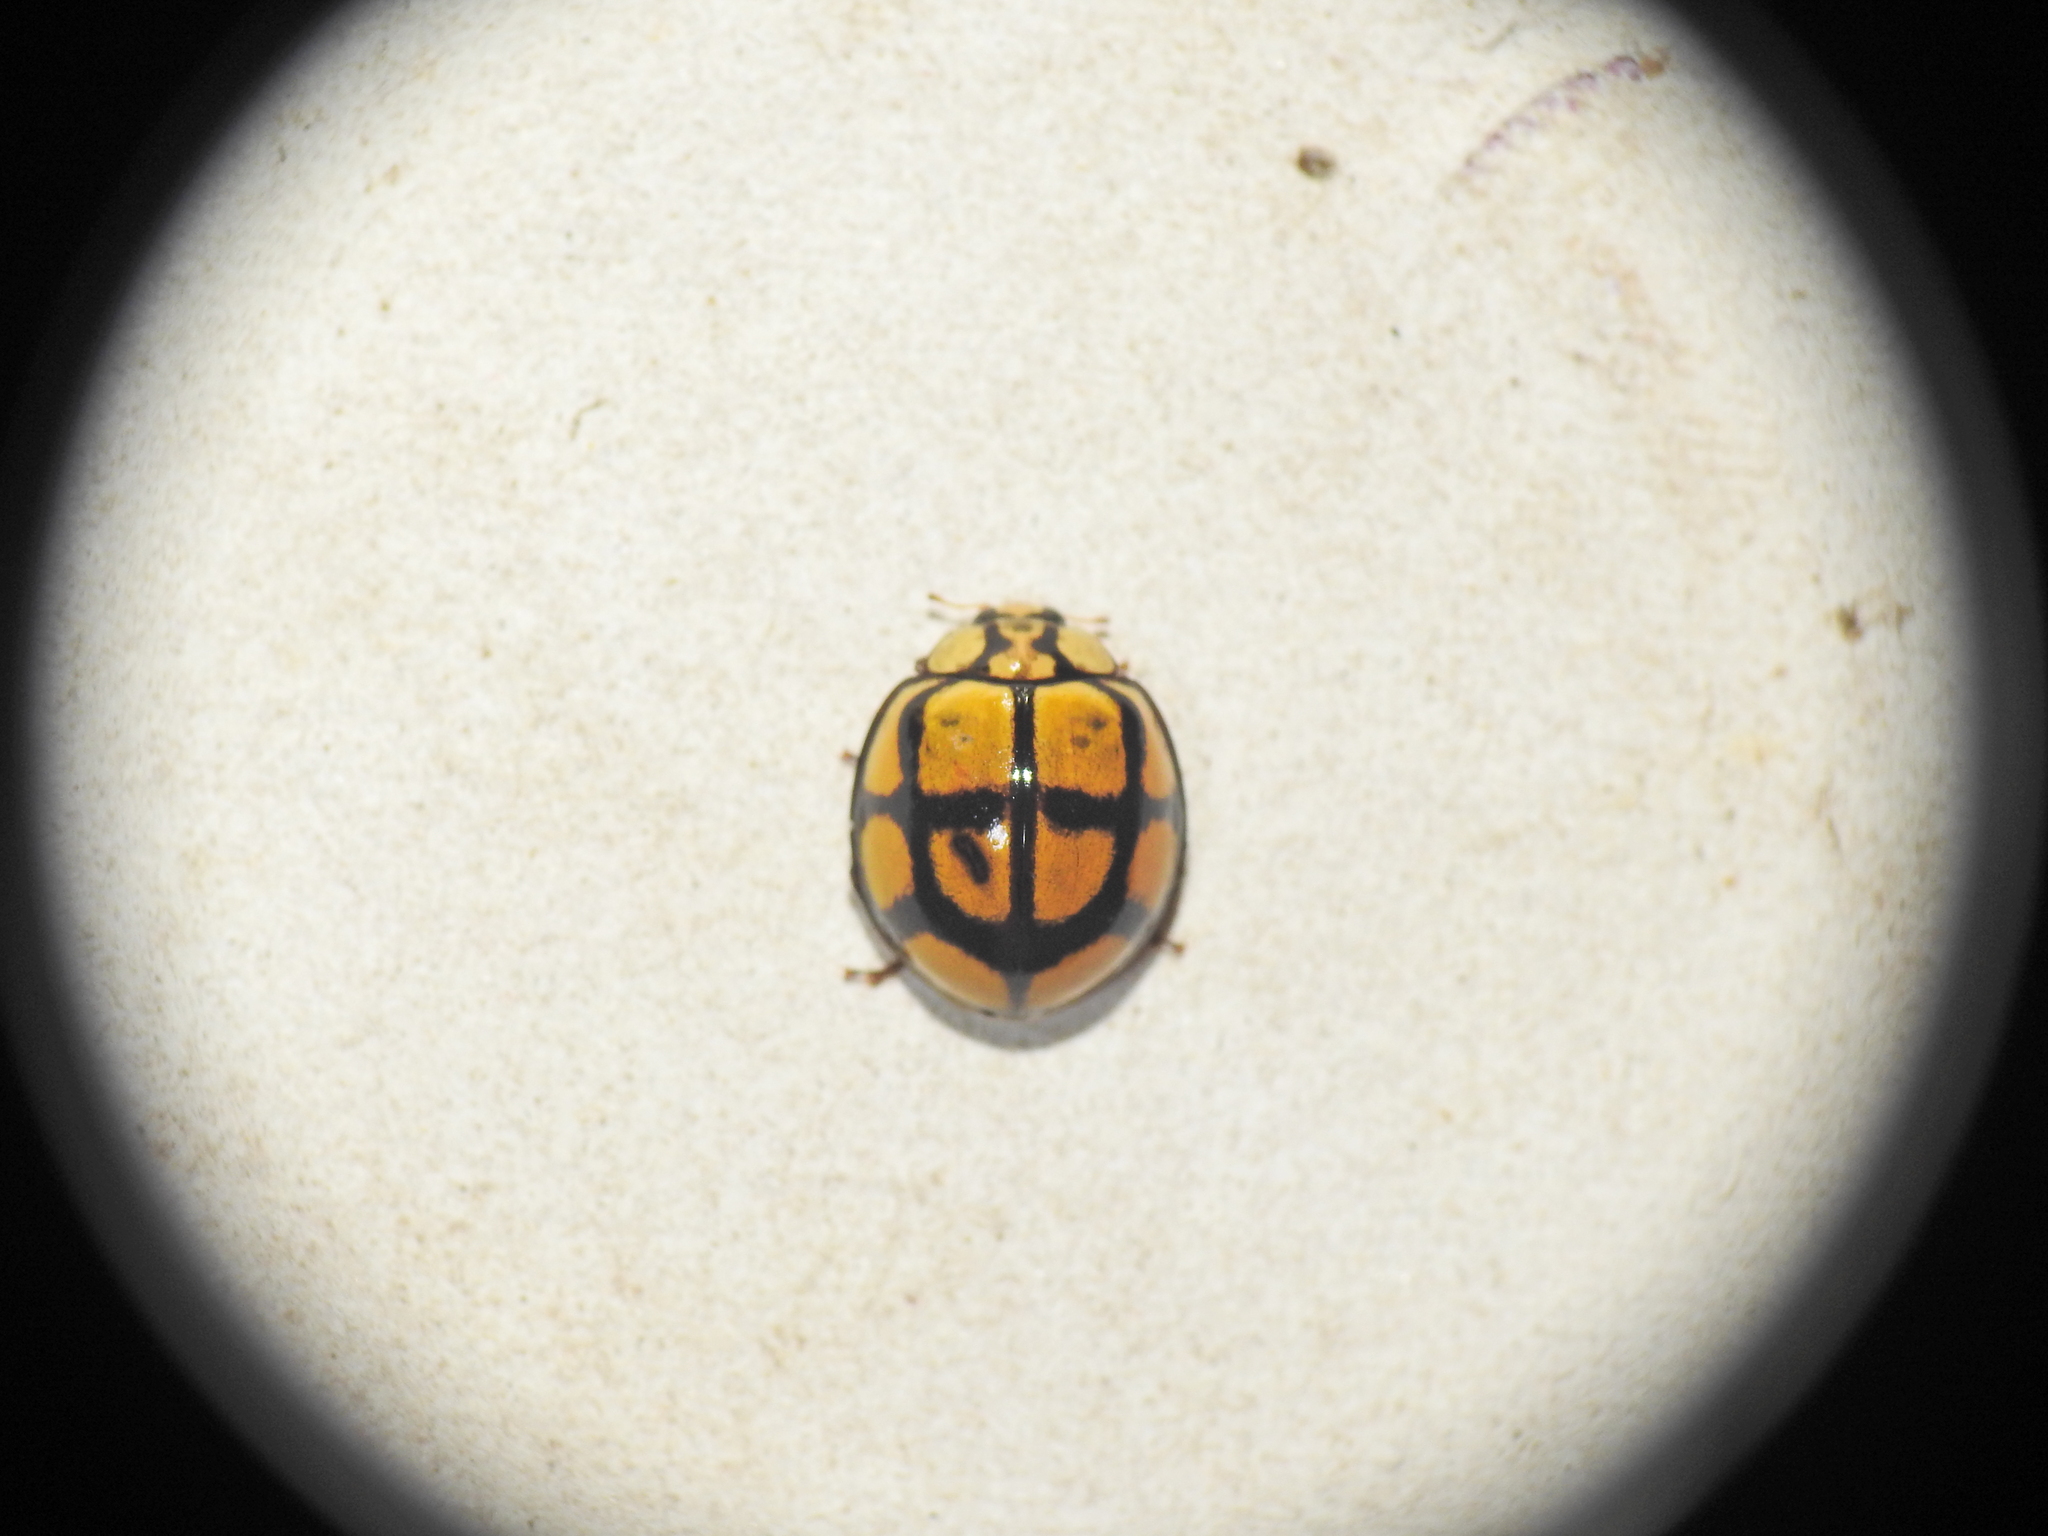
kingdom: Animalia
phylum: Arthropoda
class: Insecta
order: Coleoptera
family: Coccinellidae
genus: Harmonia
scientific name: Harmonia
